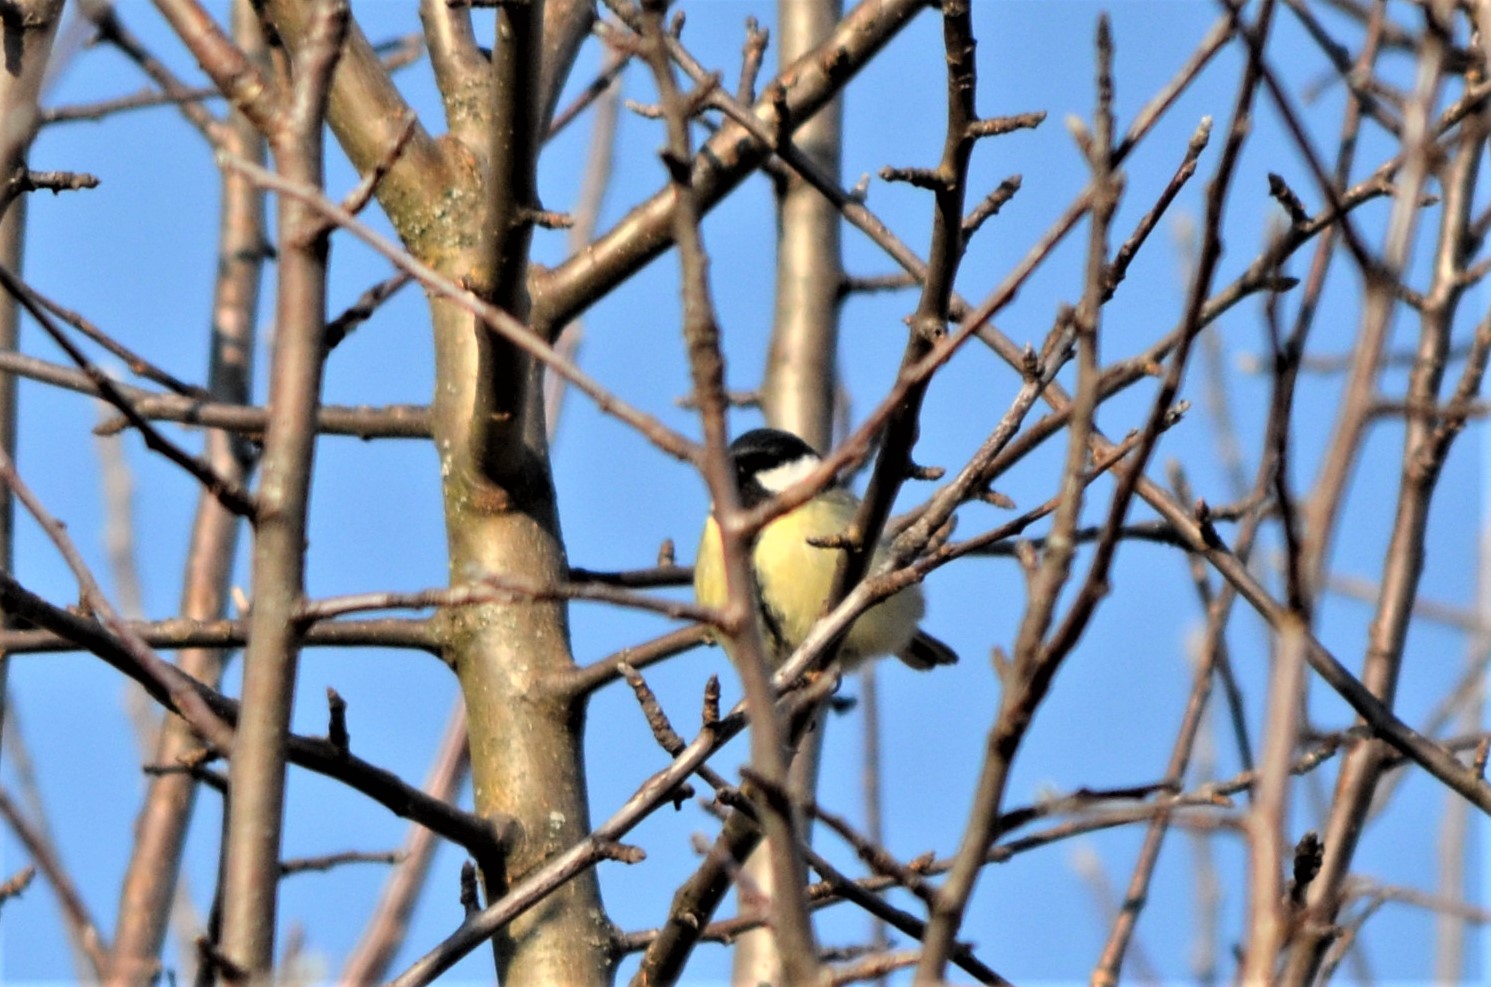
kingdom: Animalia
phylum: Chordata
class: Aves
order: Passeriformes
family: Paridae
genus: Parus
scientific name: Parus major
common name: Great tit
